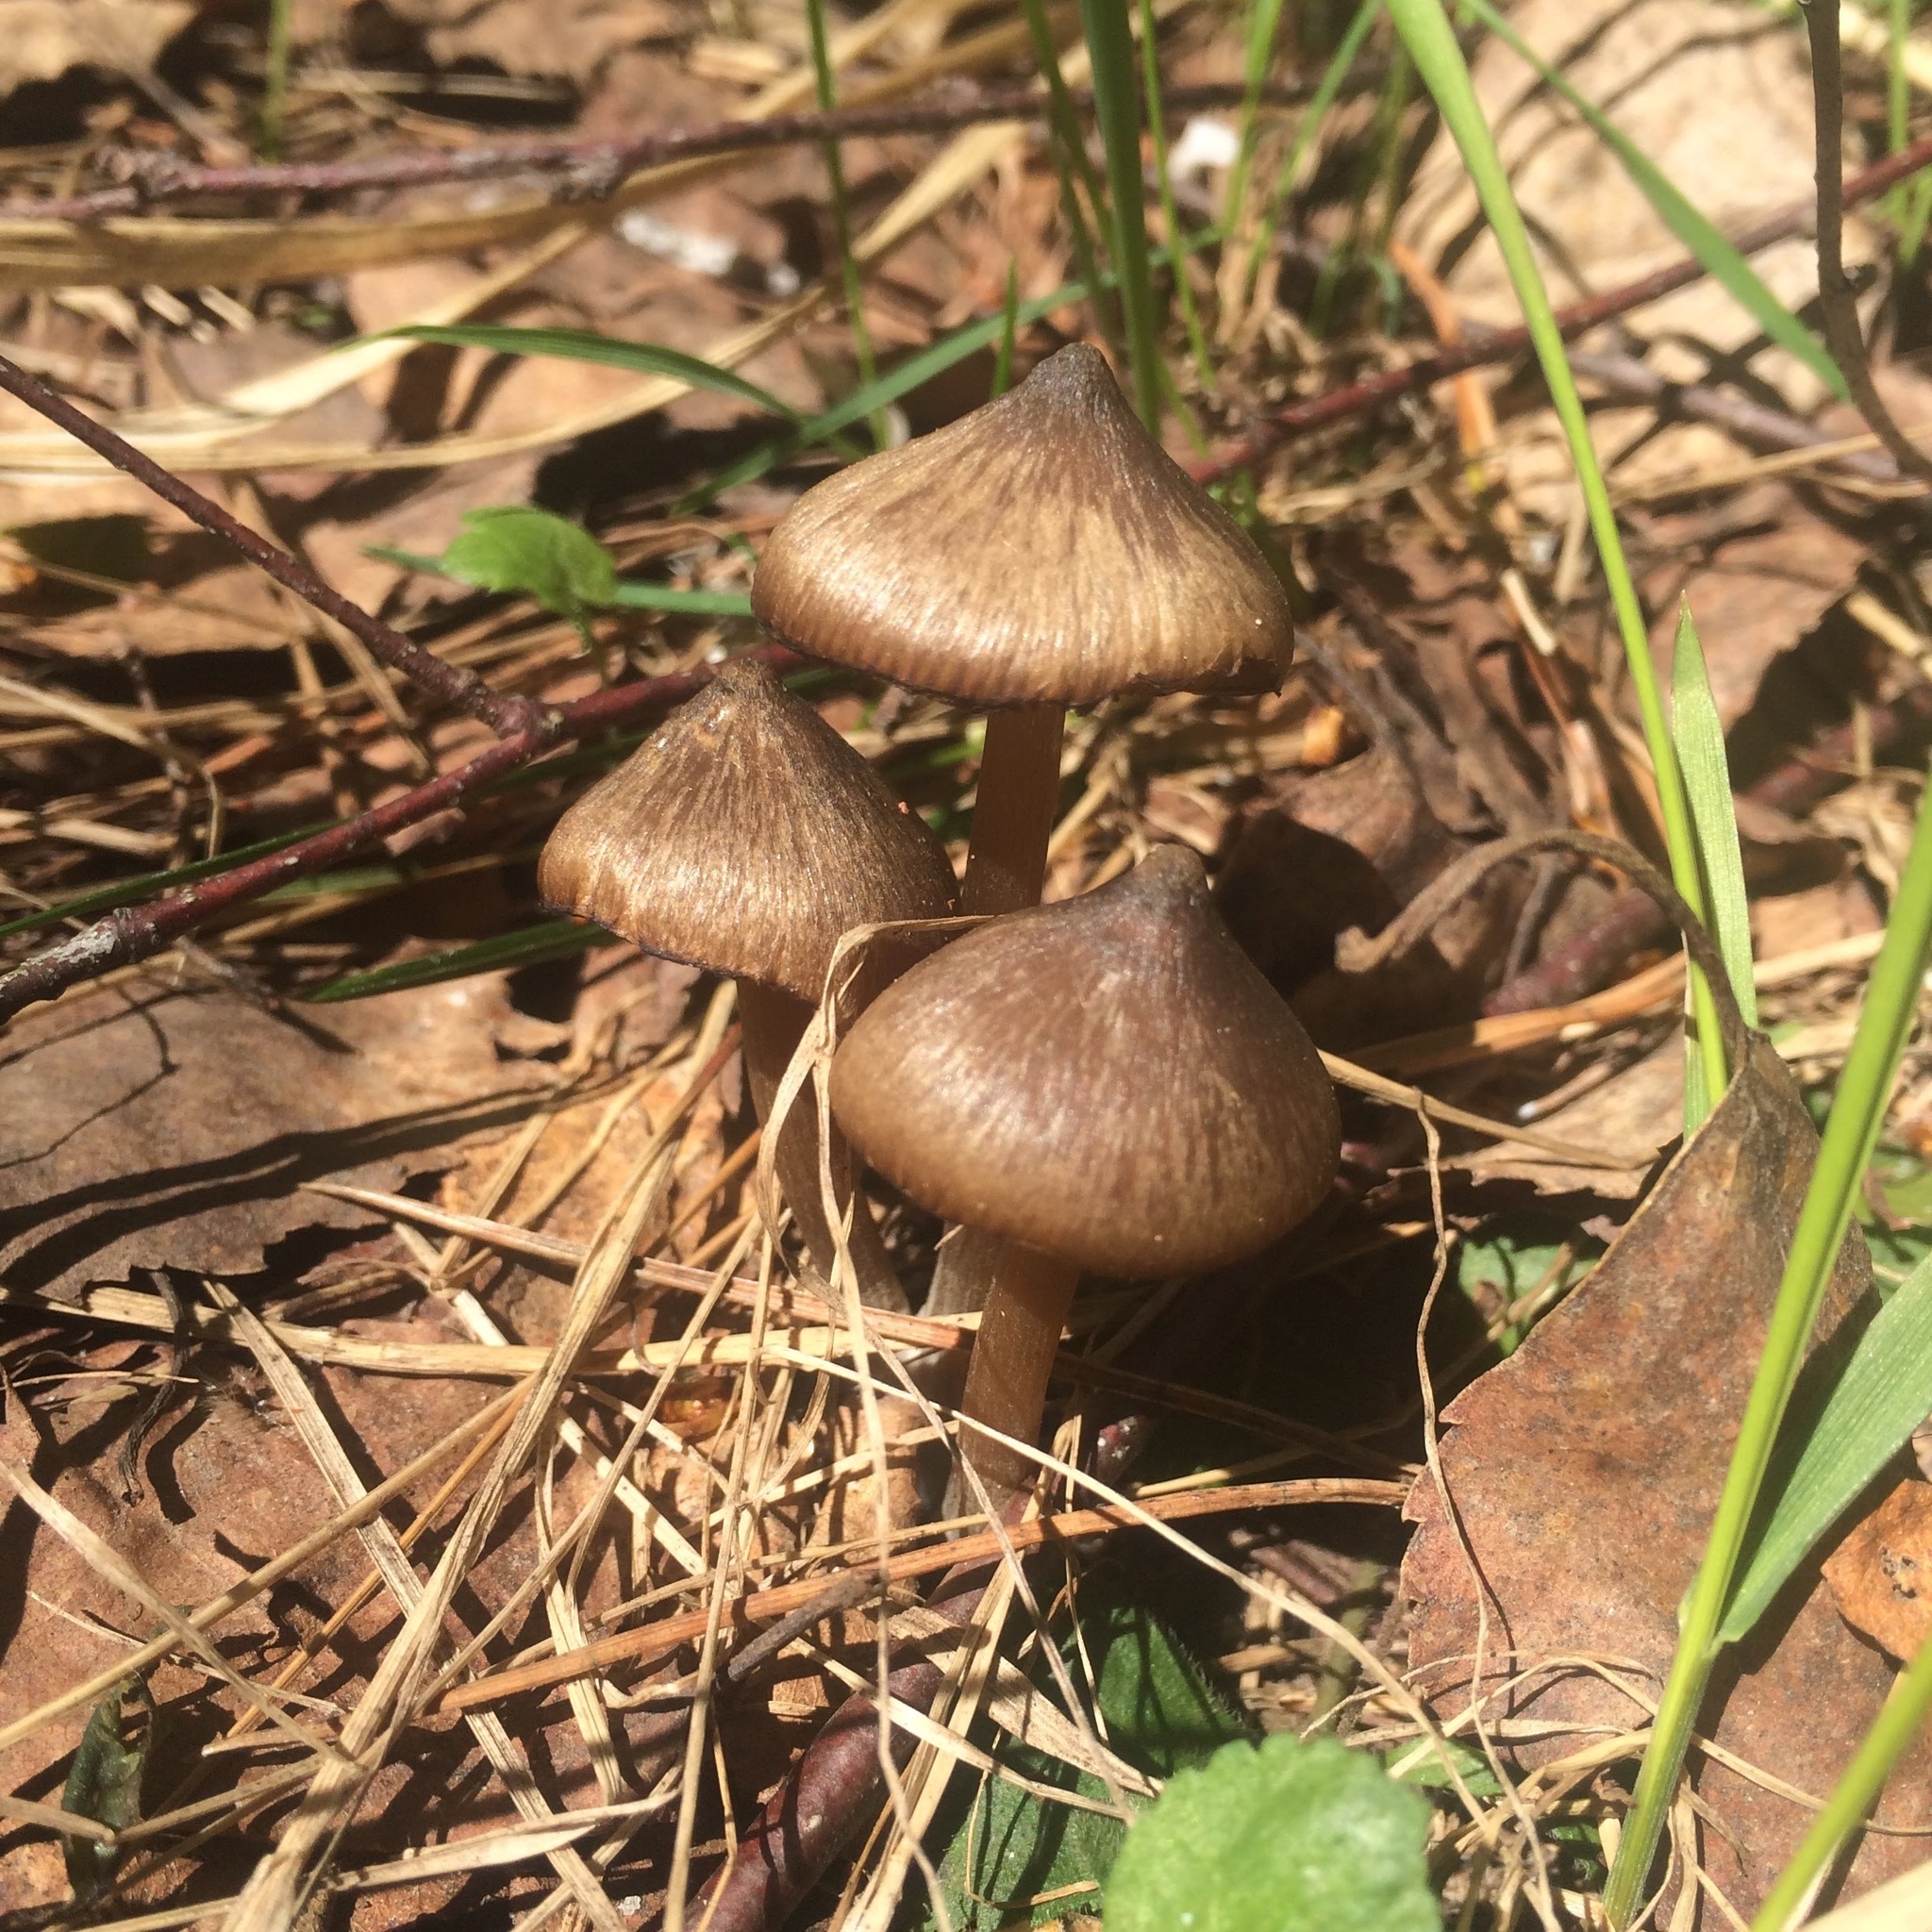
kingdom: Fungi
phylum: Basidiomycota
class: Agaricomycetes
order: Agaricales
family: Entolomataceae
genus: Entoloma
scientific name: Entoloma vernum
